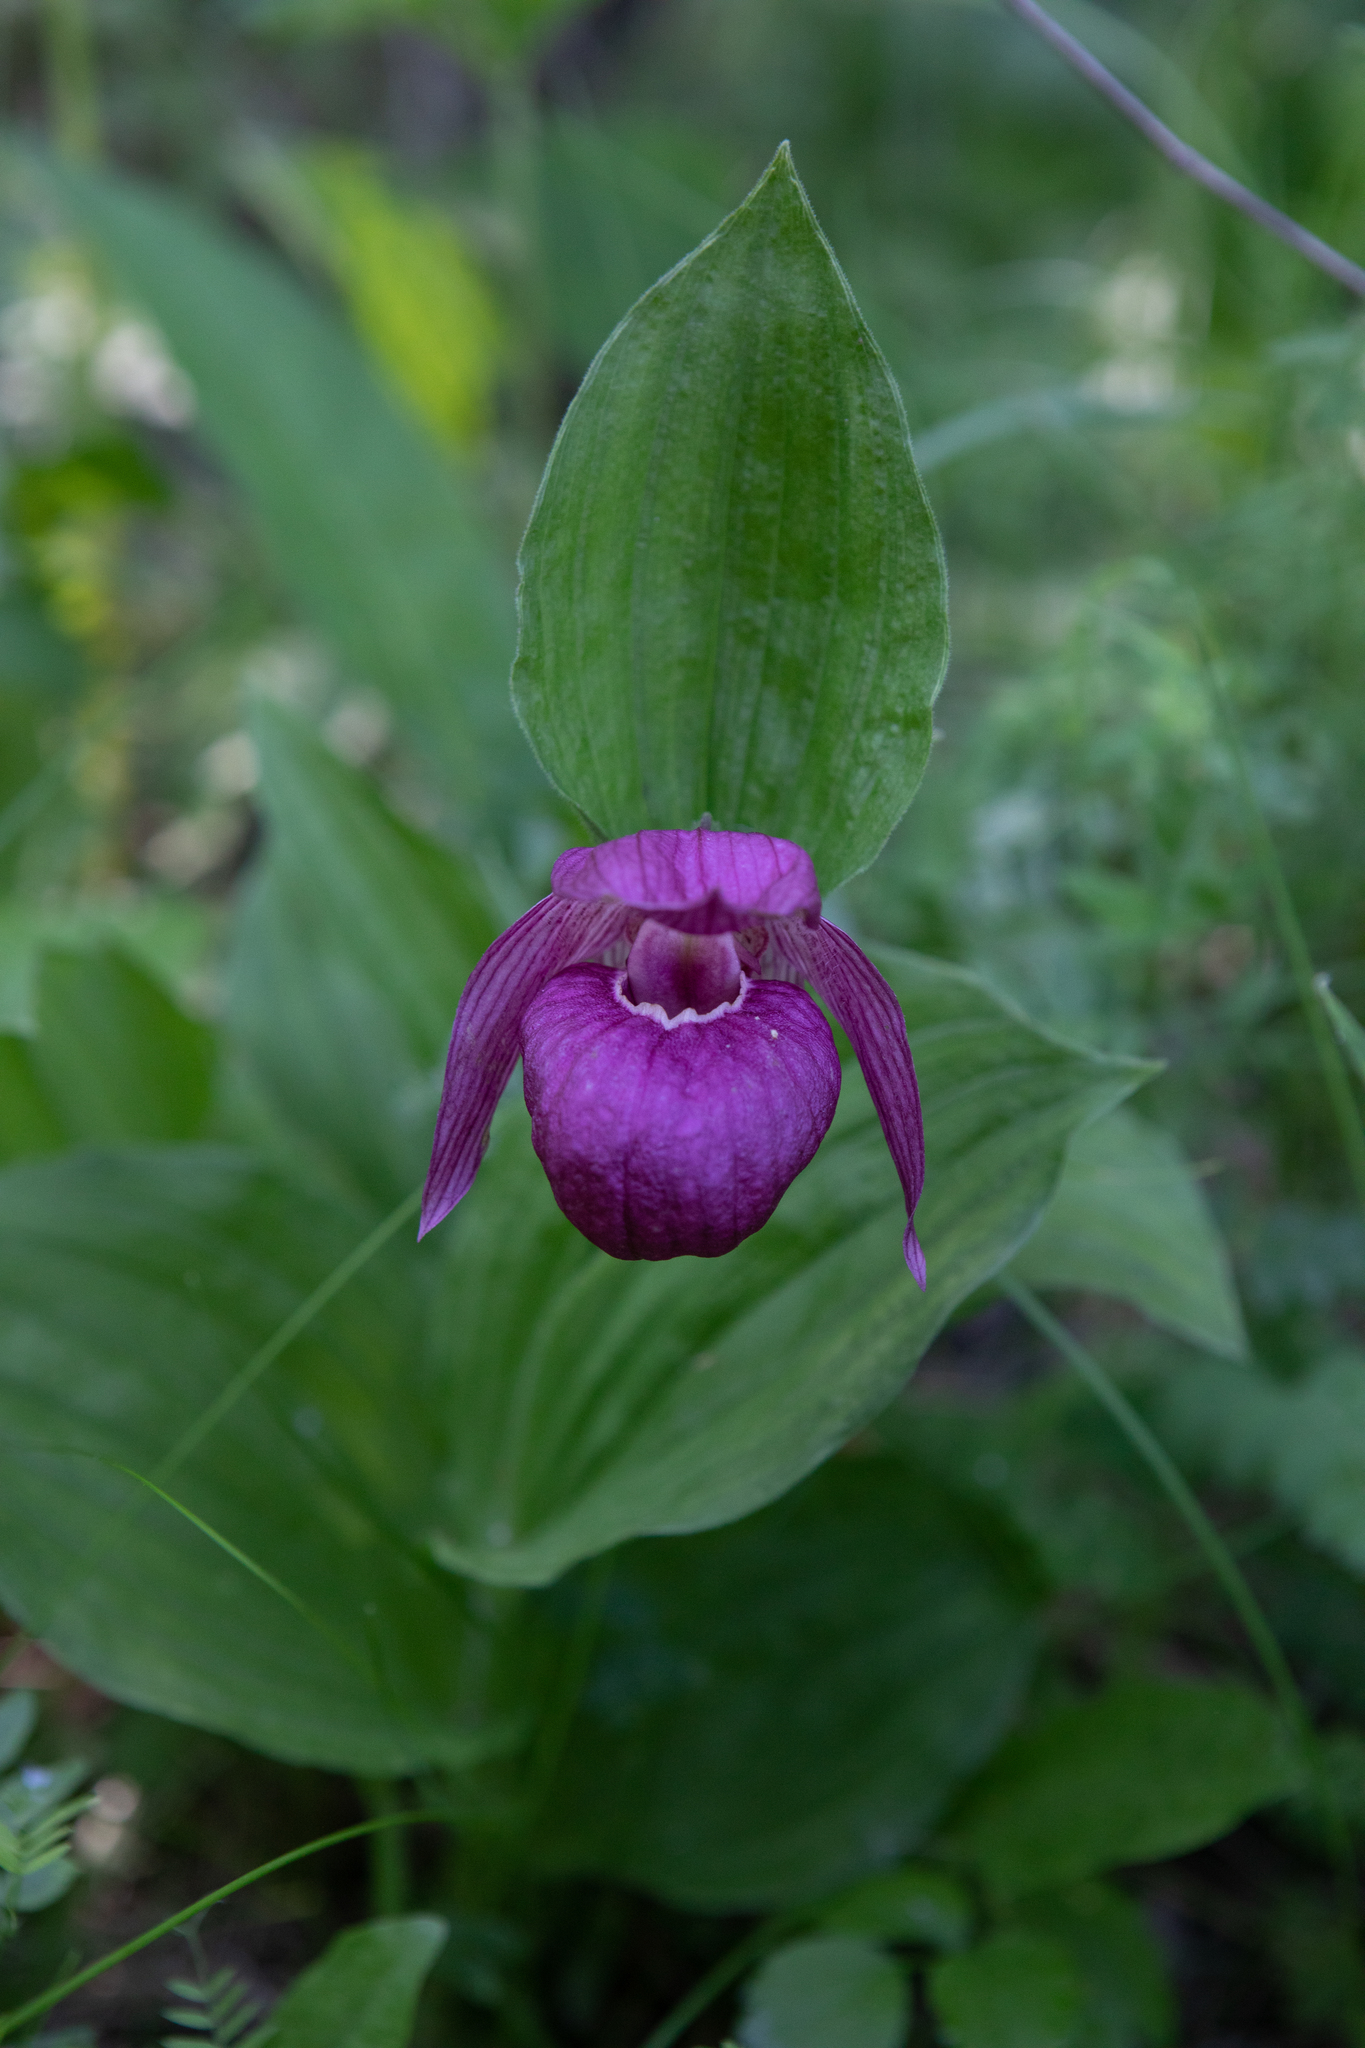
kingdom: Plantae
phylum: Tracheophyta
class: Liliopsida
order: Asparagales
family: Orchidaceae
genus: Cypripedium
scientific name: Cypripedium macranthos
